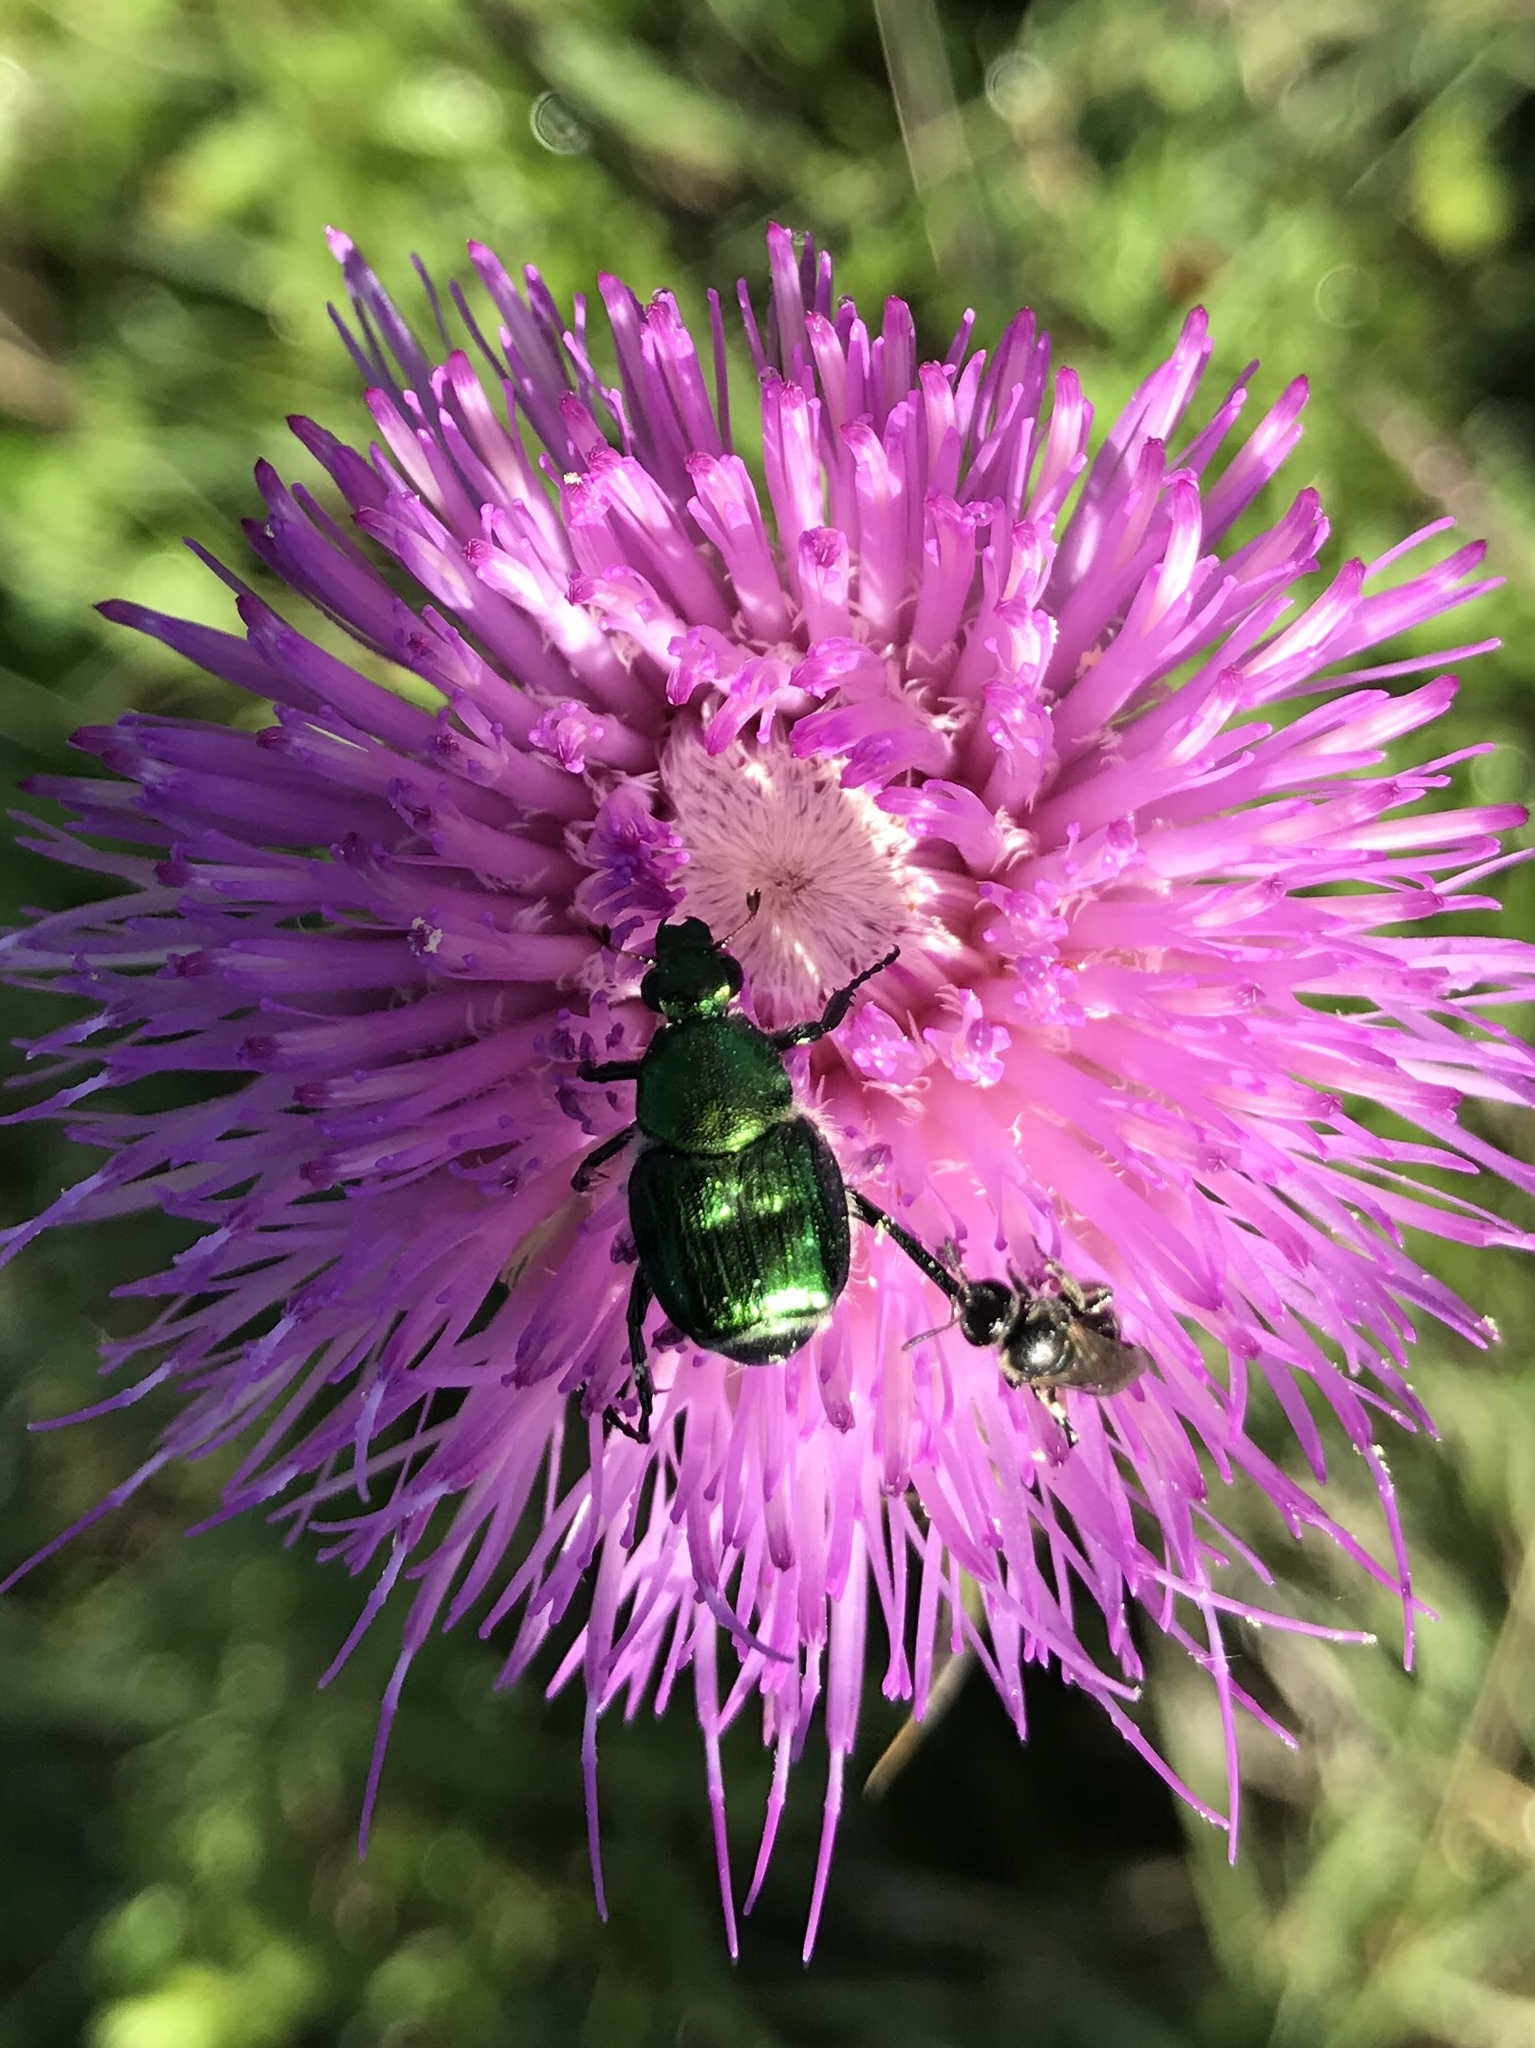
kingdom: Animalia
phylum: Arthropoda
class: Insecta
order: Coleoptera
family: Scarabaeidae
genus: Trichiotinus
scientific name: Trichiotinus lunulatus
